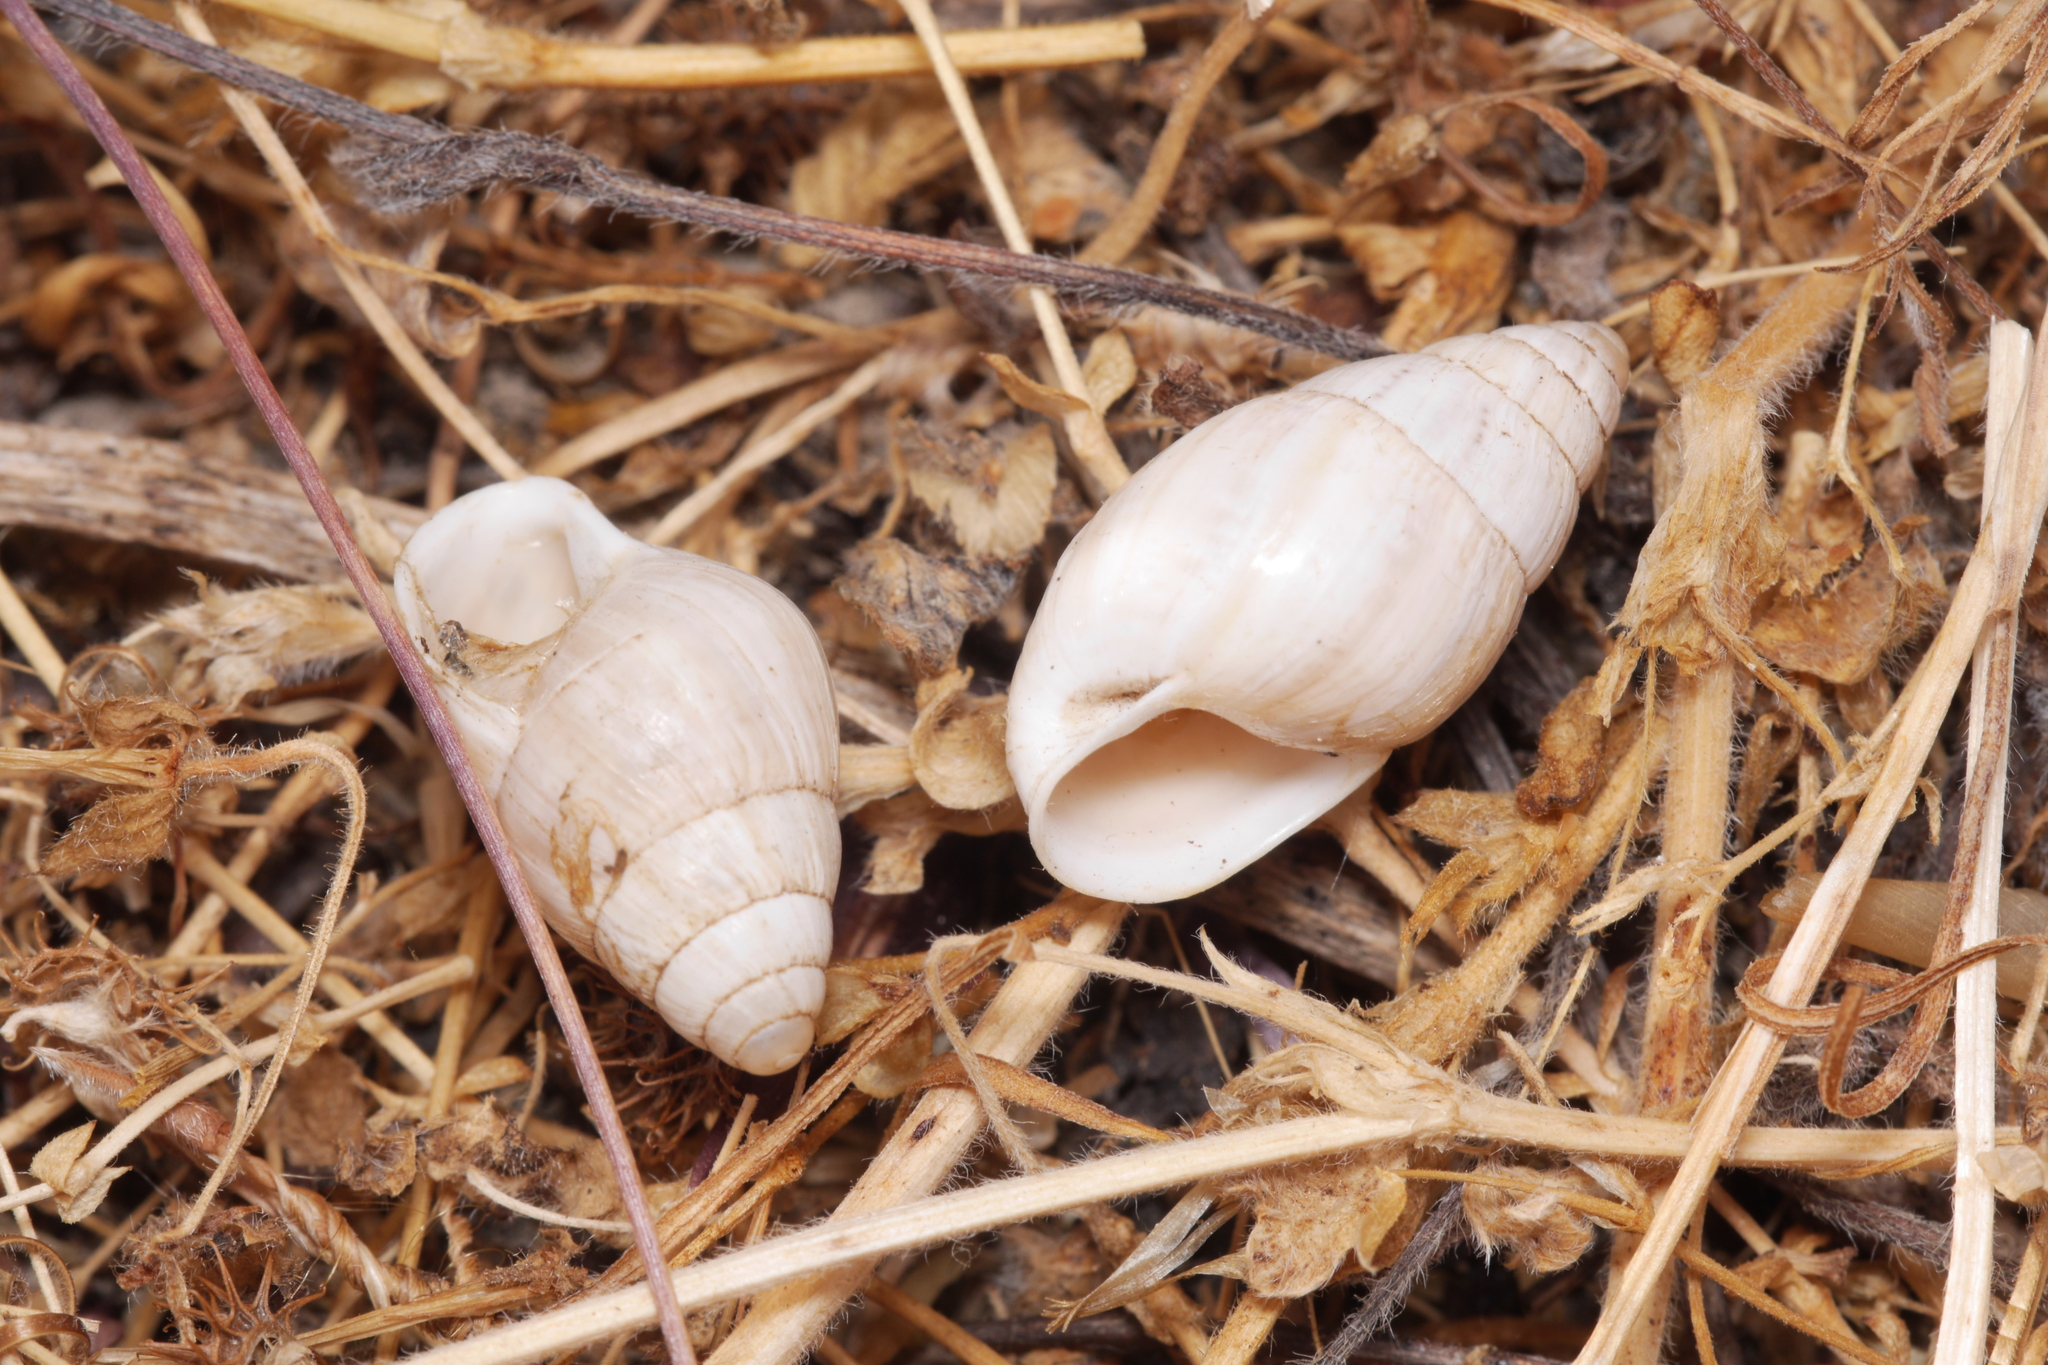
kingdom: Animalia
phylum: Mollusca
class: Gastropoda
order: Stylommatophora
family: Enidae
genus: Zebrina
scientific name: Zebrina detrita
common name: Large bulin
